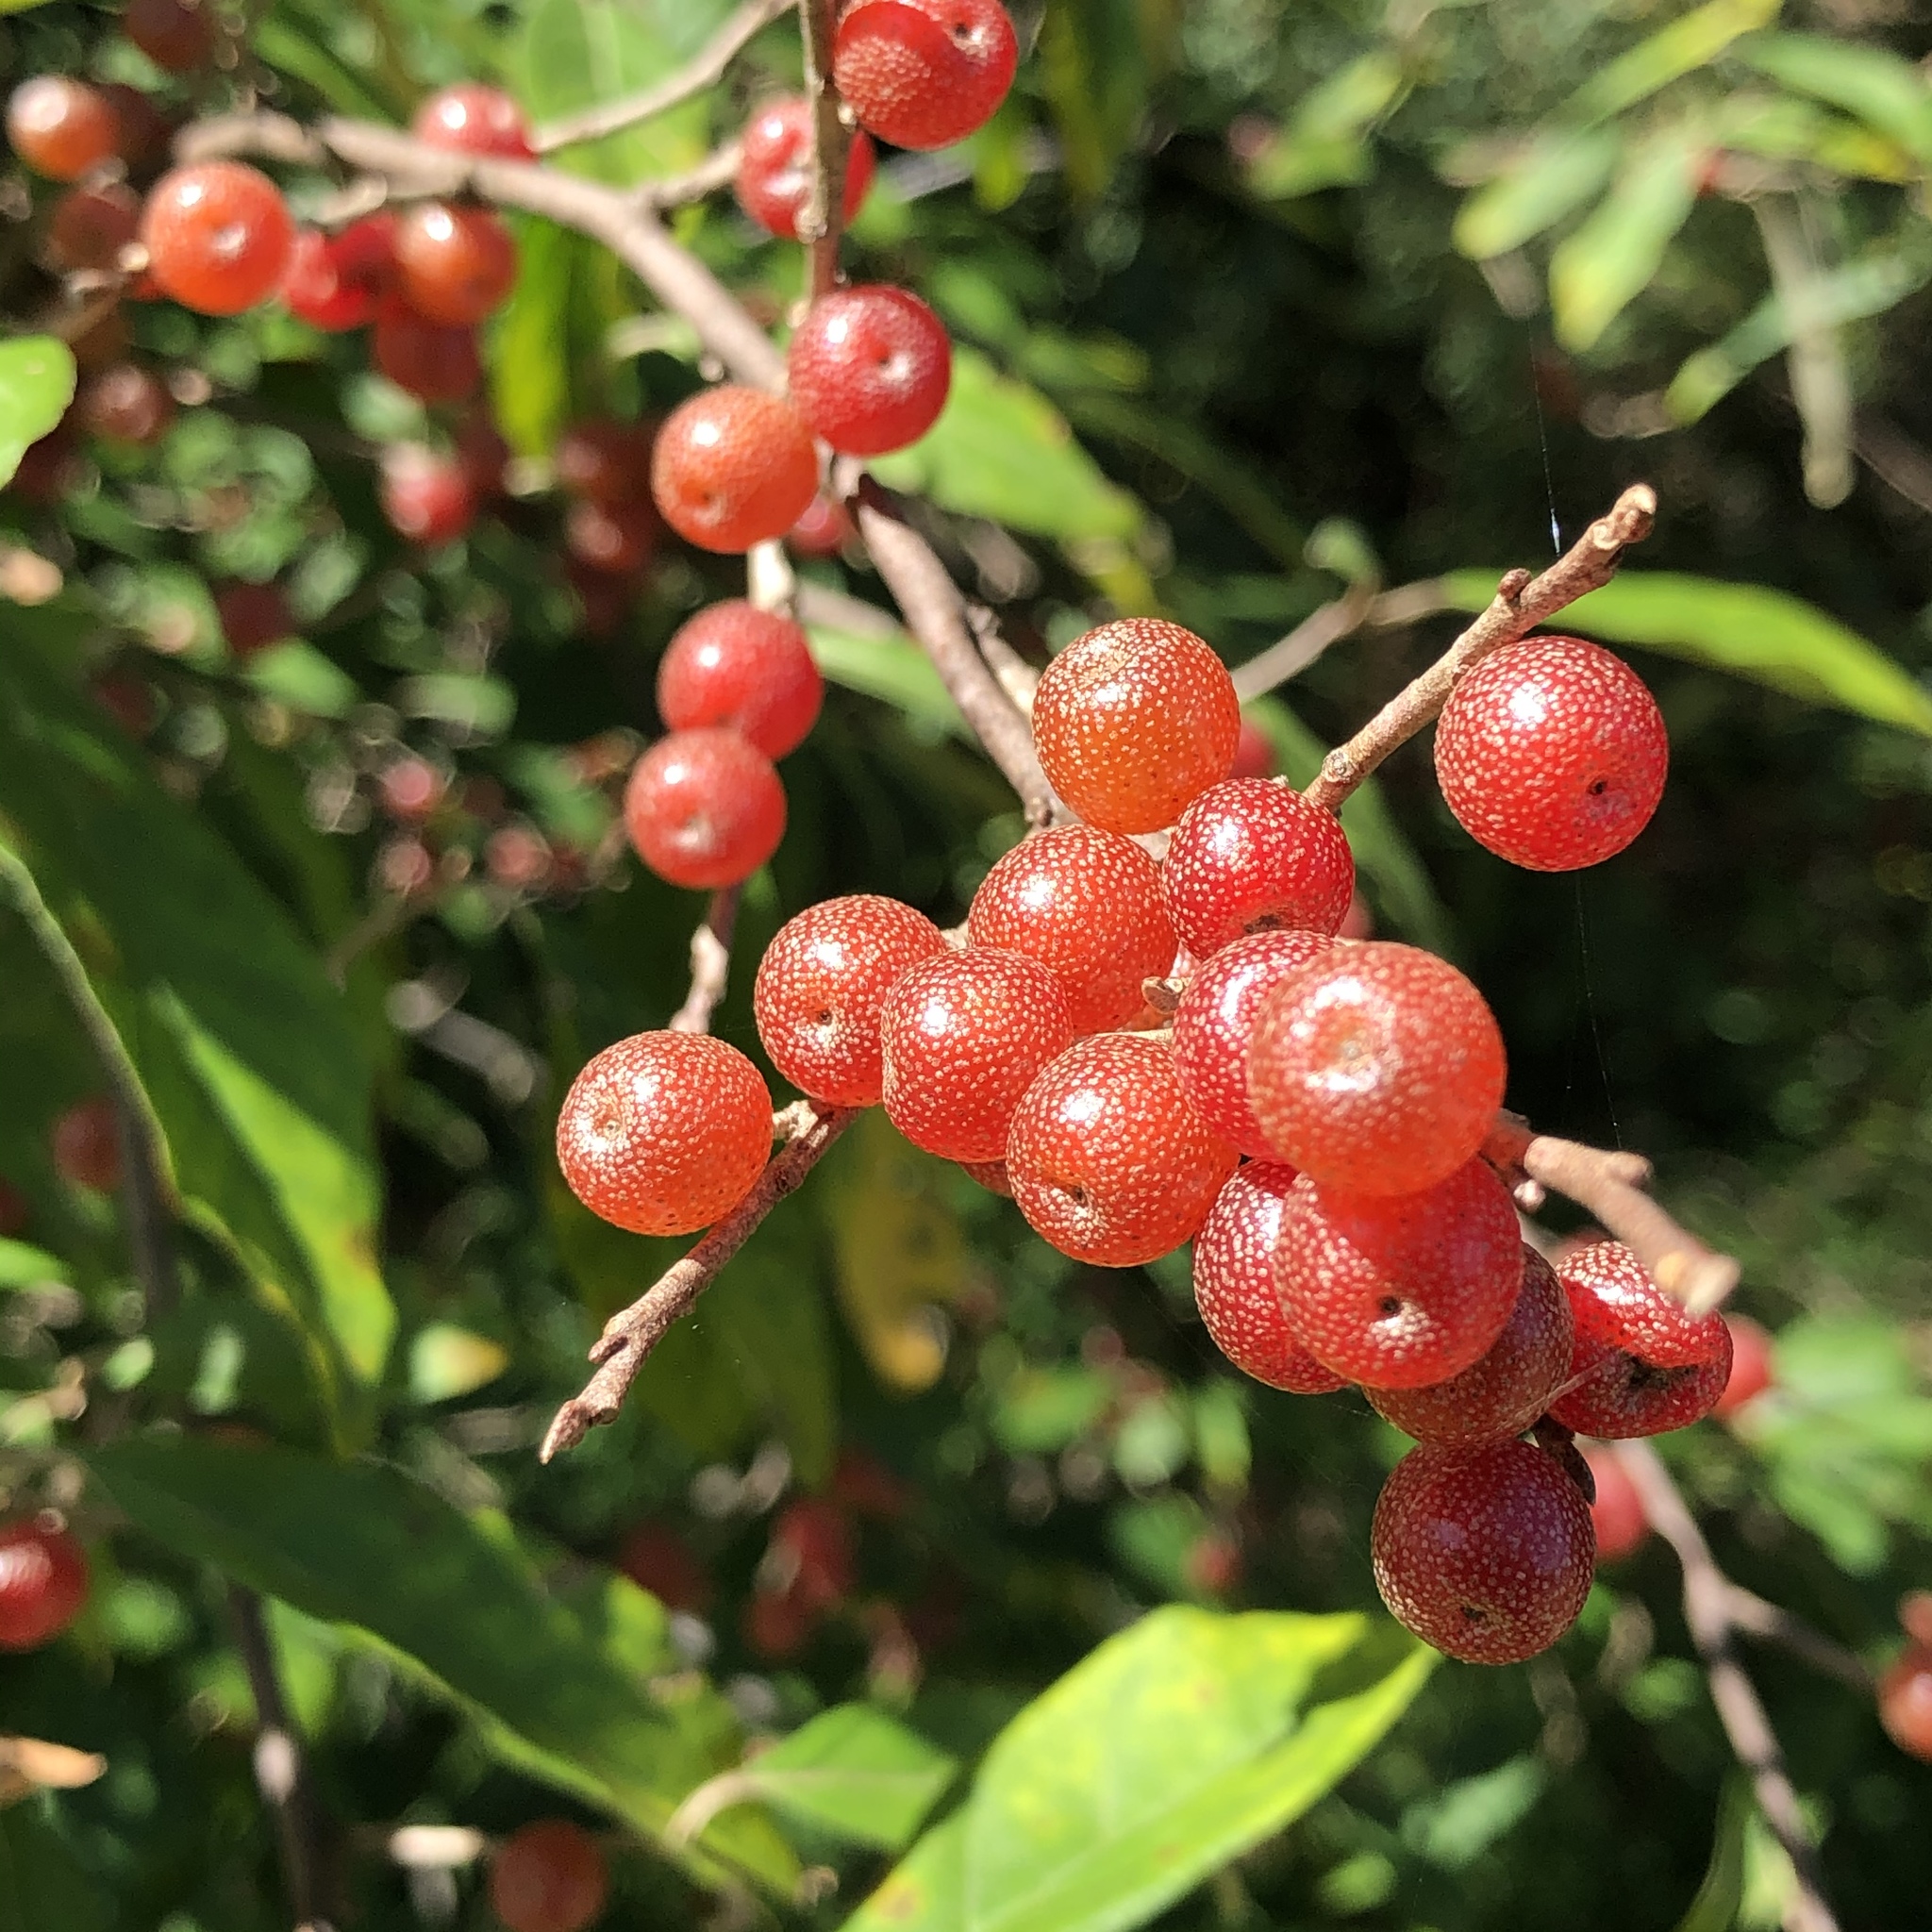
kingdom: Plantae
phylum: Tracheophyta
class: Magnoliopsida
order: Rosales
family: Elaeagnaceae
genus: Elaeagnus
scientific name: Elaeagnus umbellata
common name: Autumn olive
